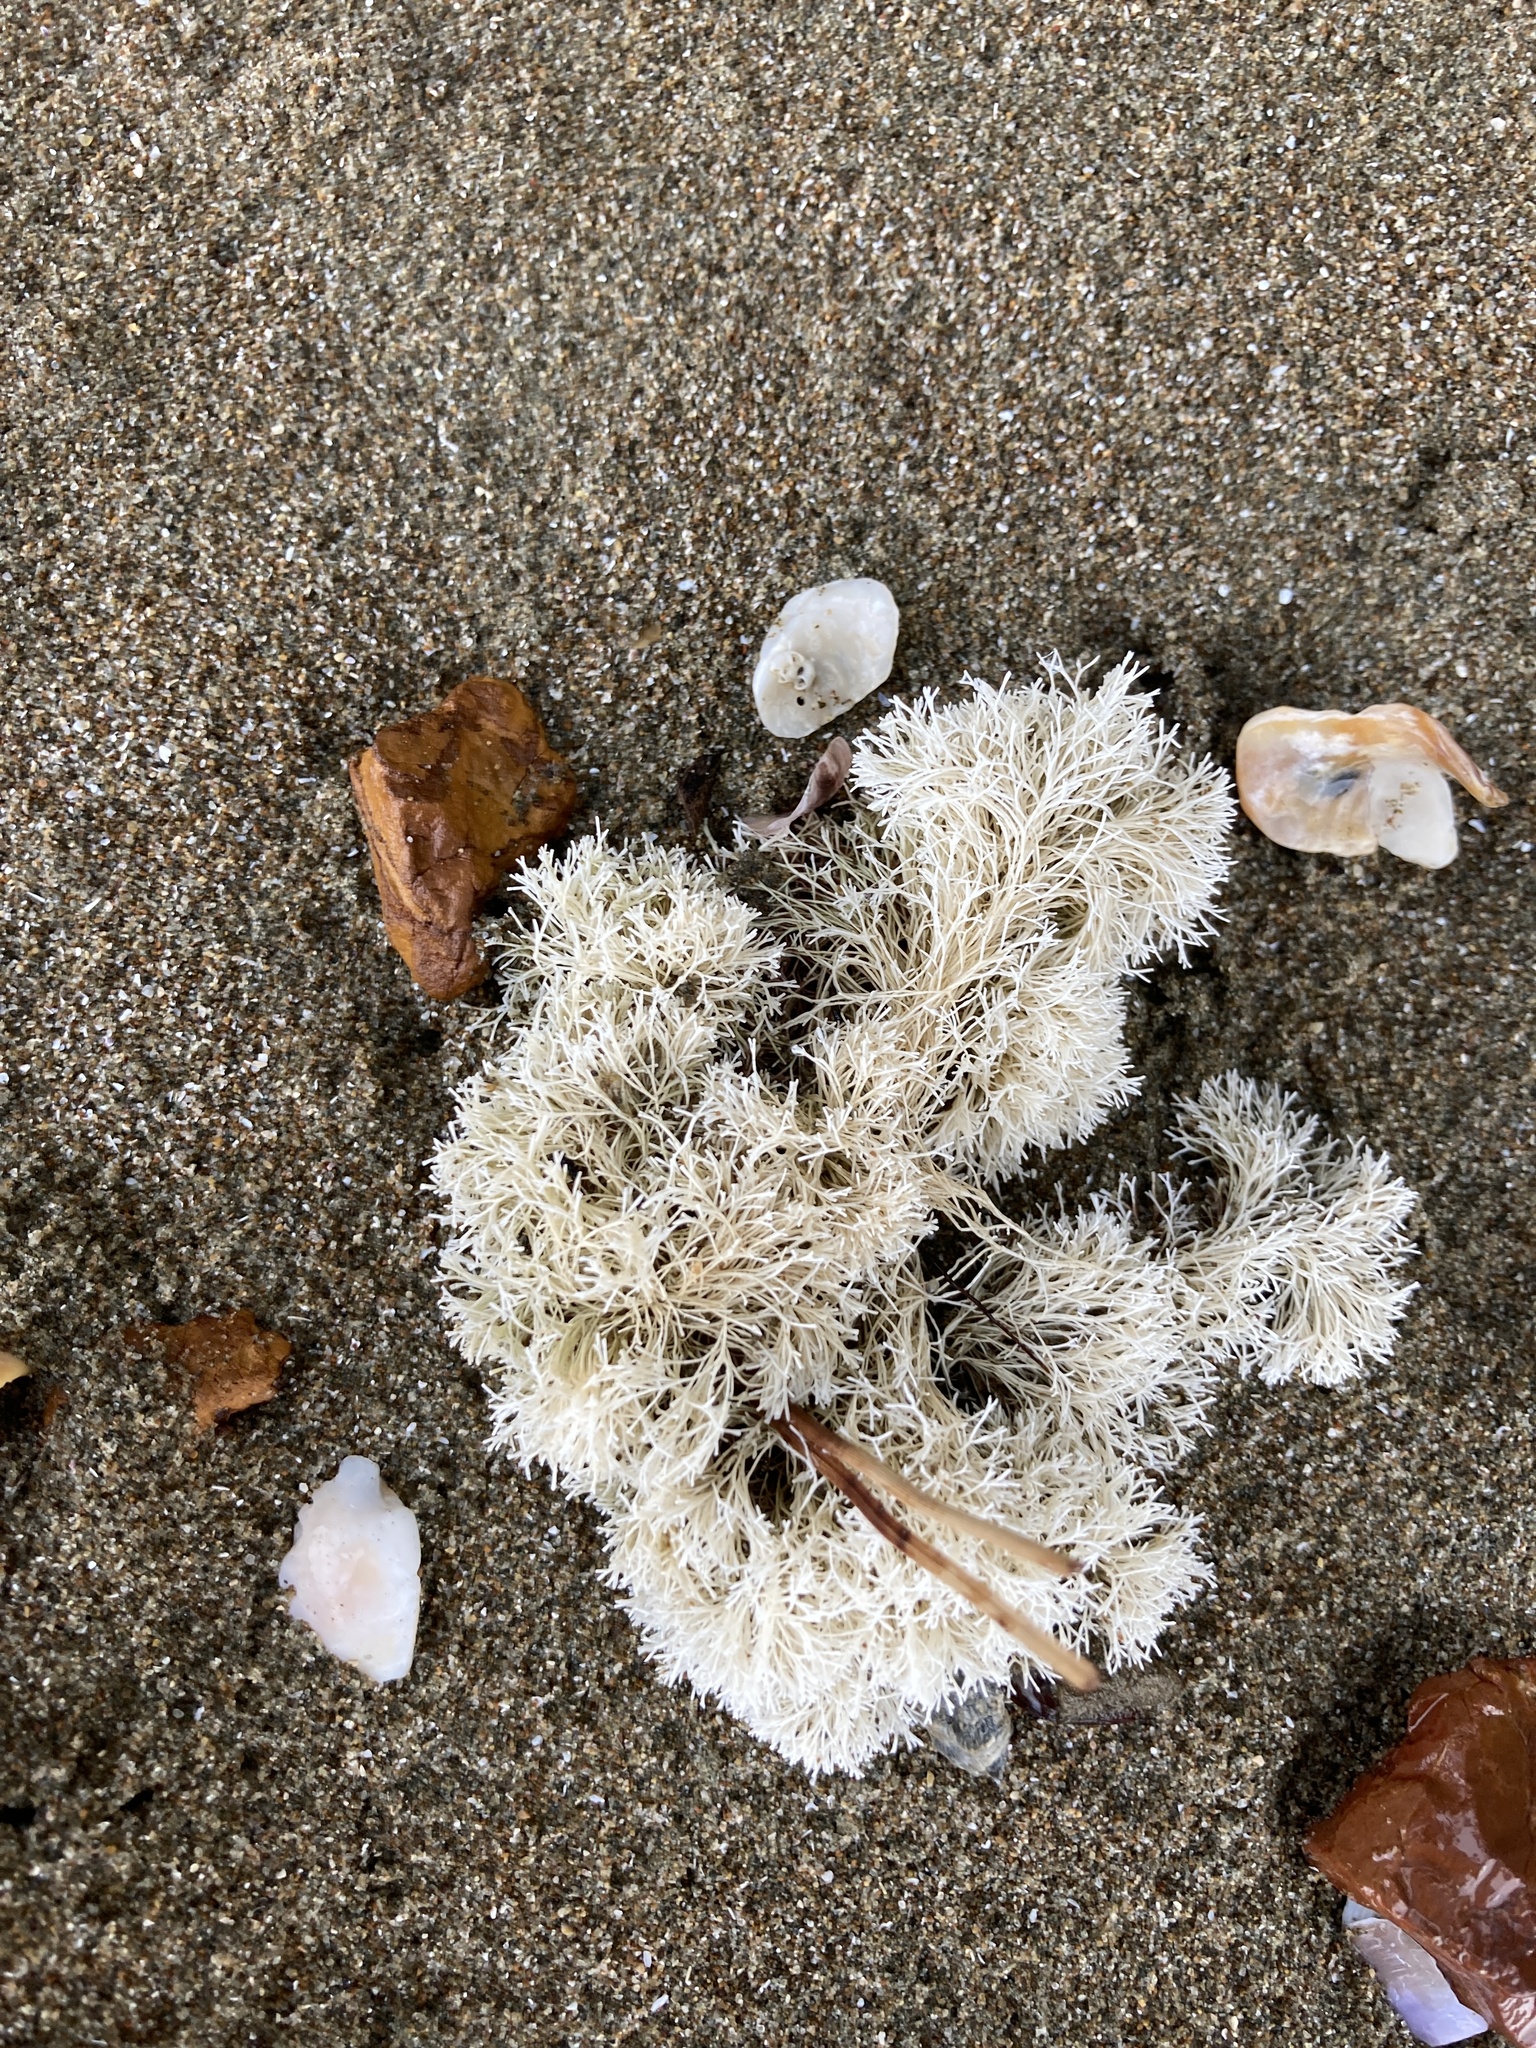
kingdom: Plantae
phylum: Rhodophyta
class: Florideophyceae
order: Corallinales
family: Corallinaceae
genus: Jania
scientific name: Jania sphaeroramosa
